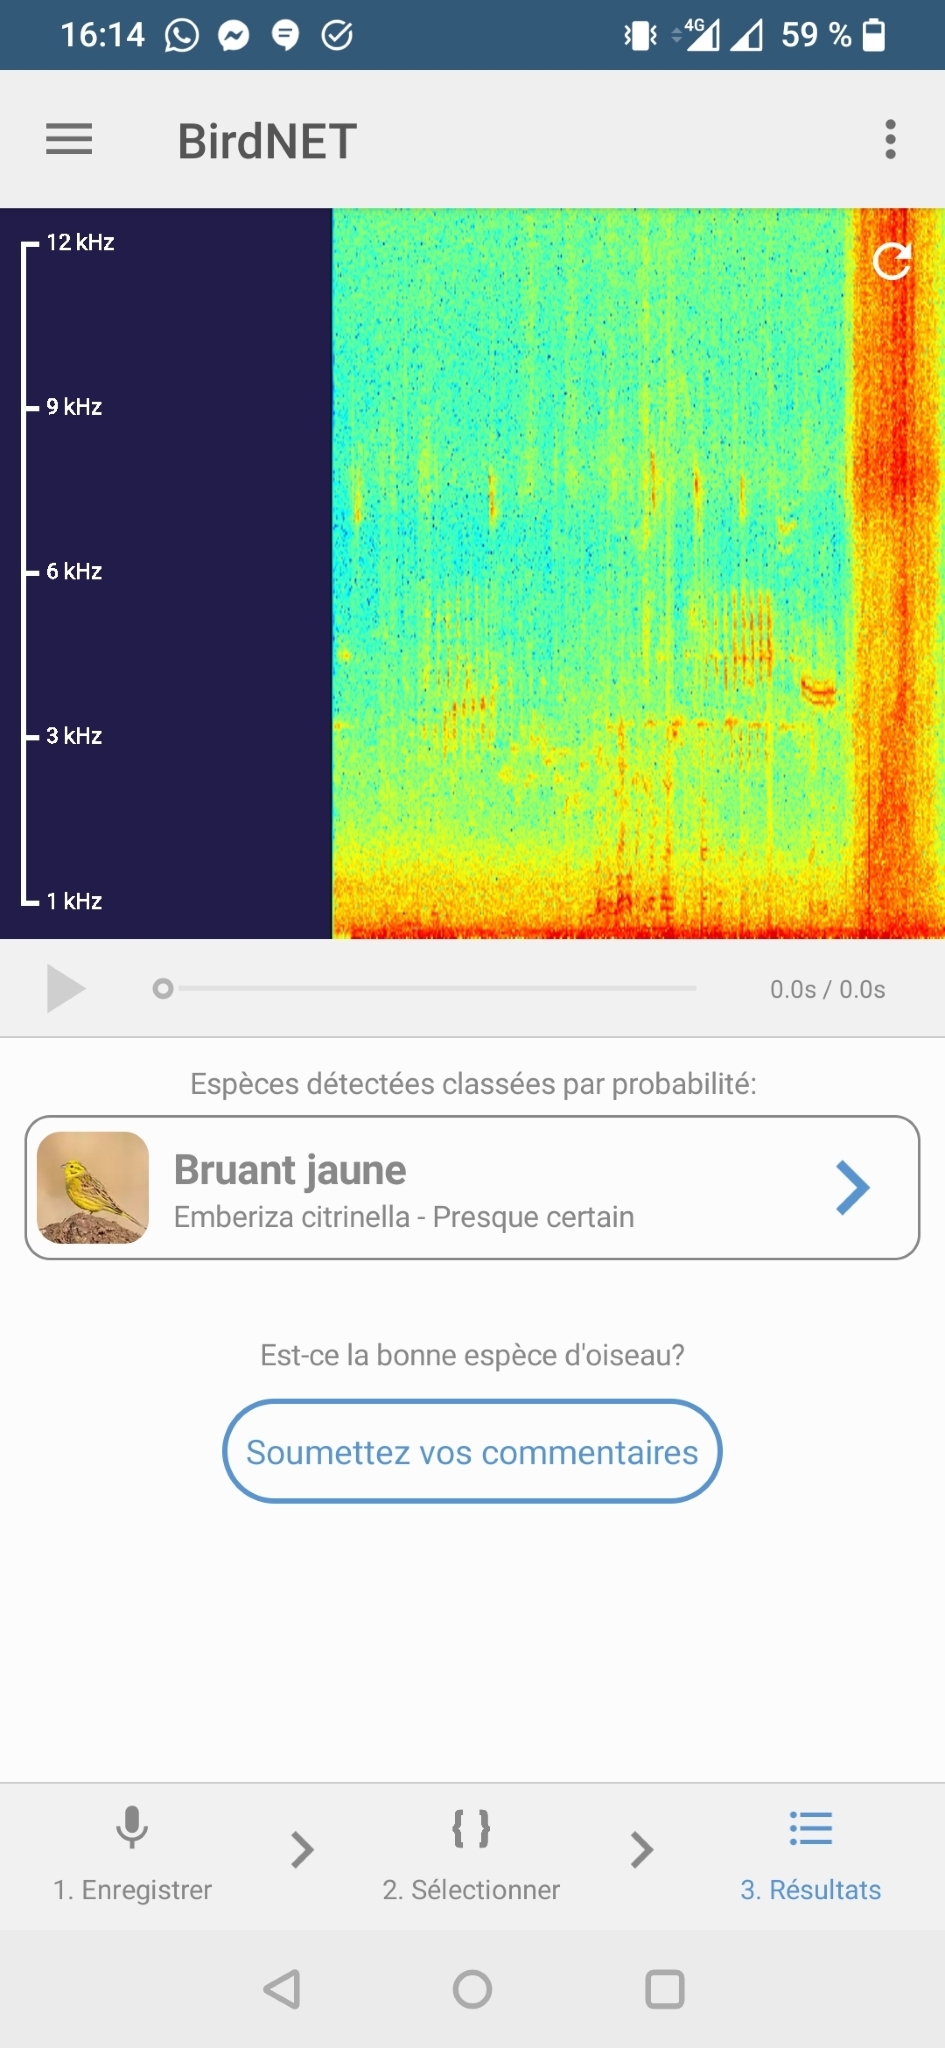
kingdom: Animalia
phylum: Chordata
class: Aves
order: Passeriformes
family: Emberizidae
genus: Emberiza
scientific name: Emberiza citrinella
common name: Yellowhammer
